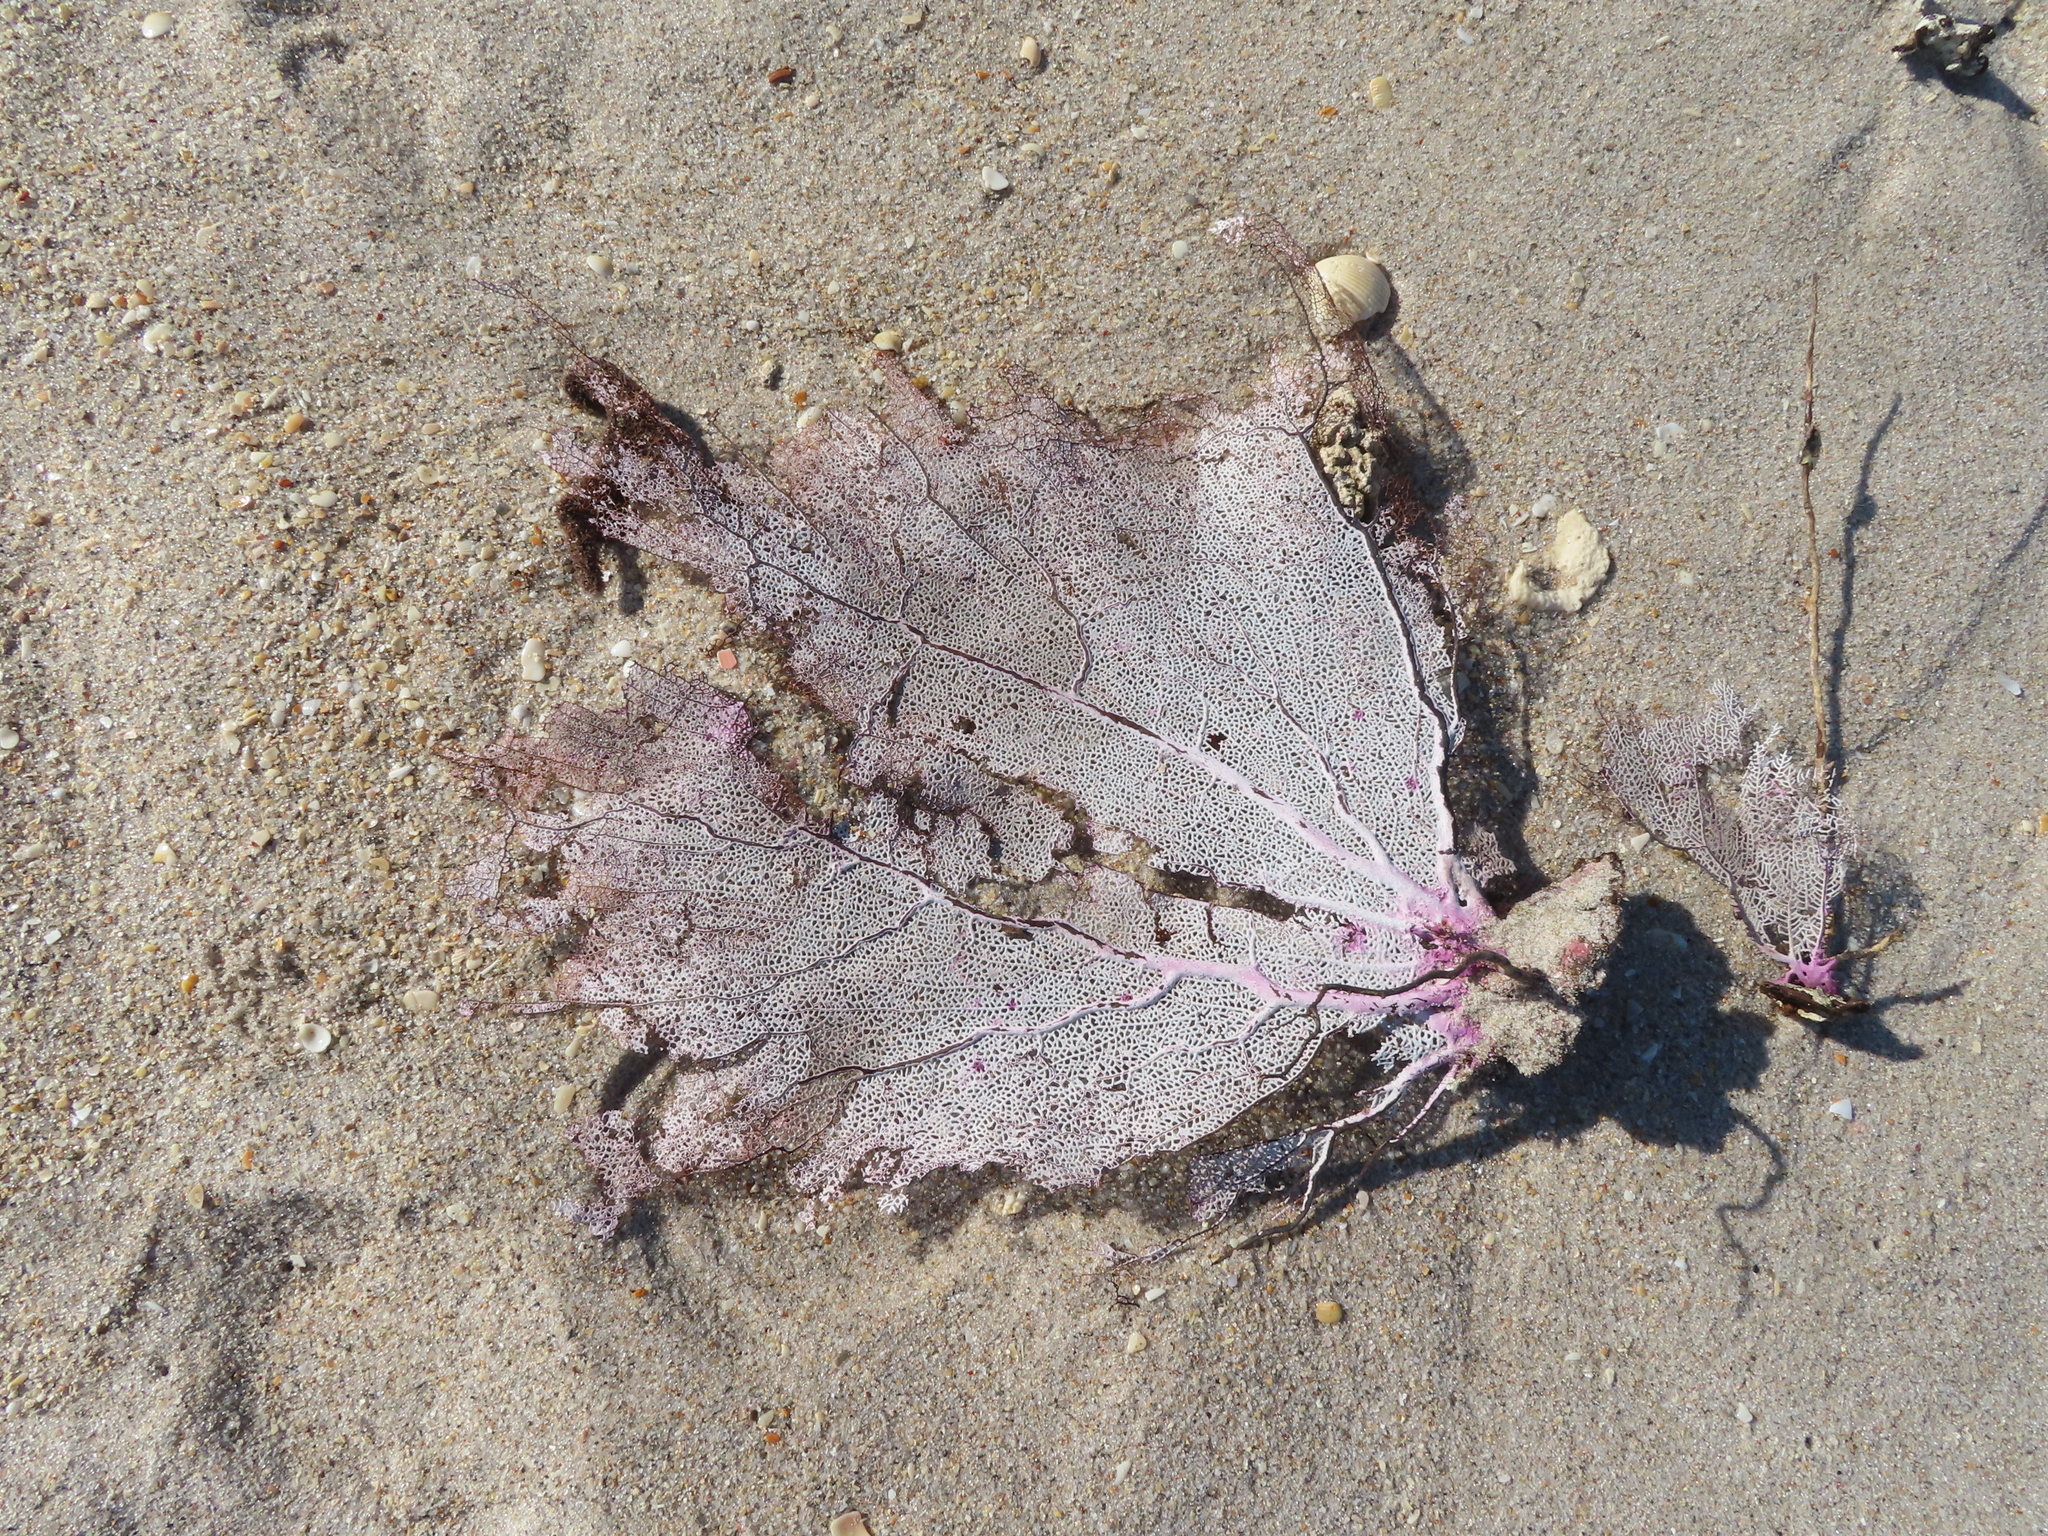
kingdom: Animalia
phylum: Cnidaria
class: Anthozoa
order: Malacalcyonacea
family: Gorgoniidae
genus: Gorgonia
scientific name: Gorgonia ventalina
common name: Common sea fan
